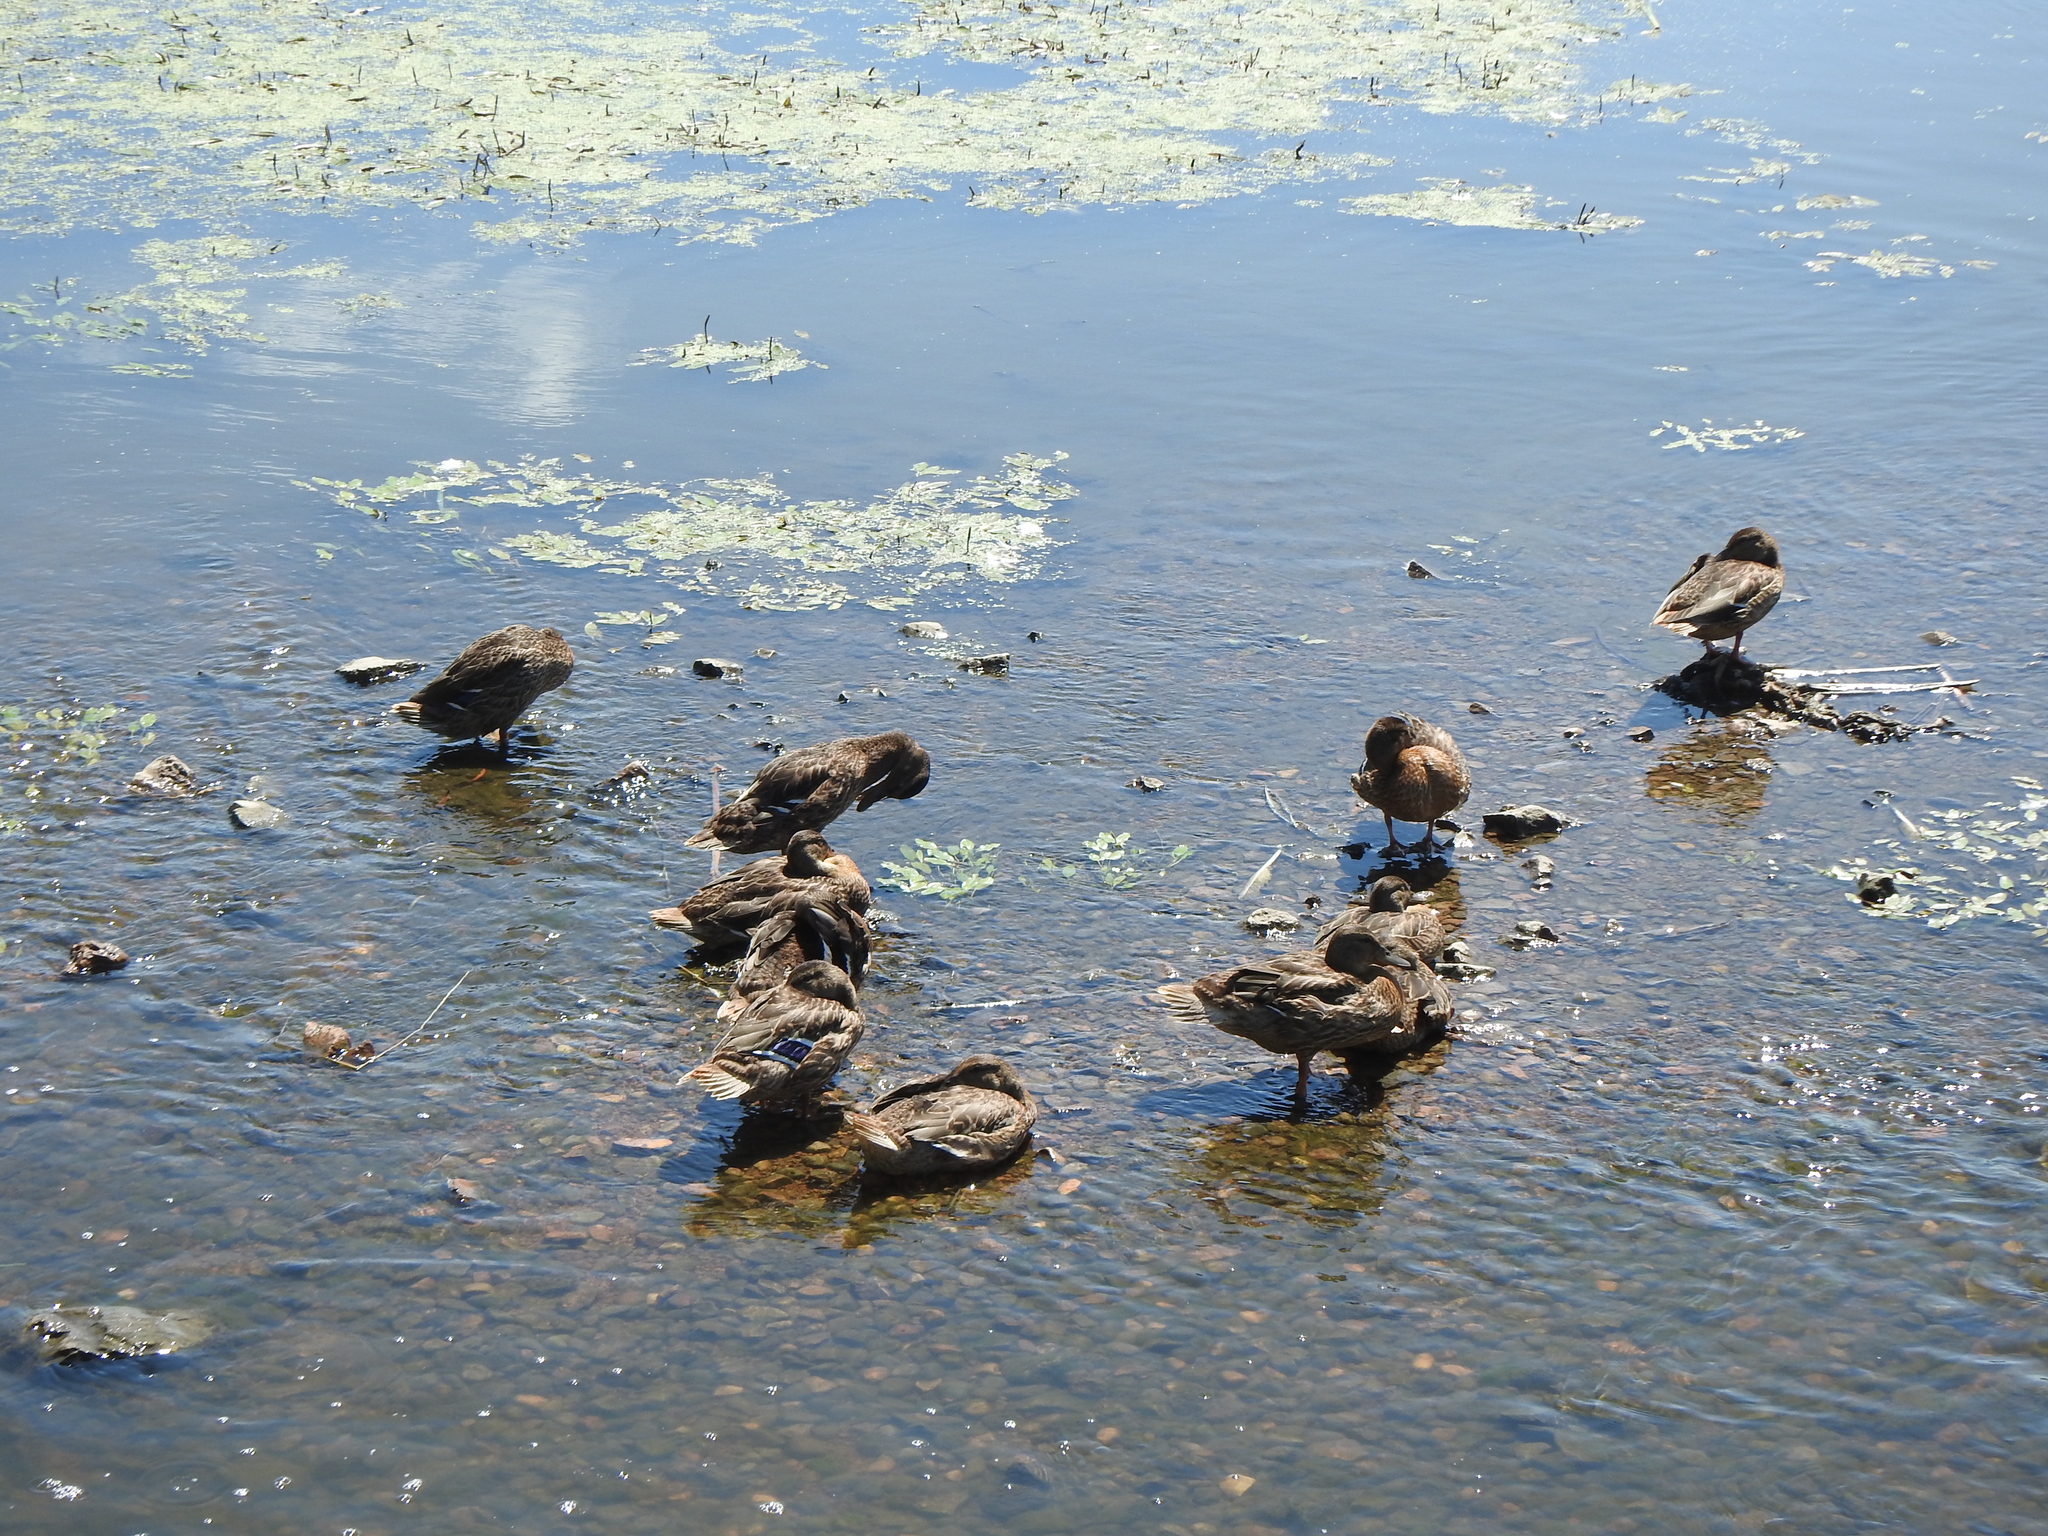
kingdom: Animalia
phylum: Chordata
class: Aves
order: Anseriformes
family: Anatidae
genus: Anas
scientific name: Anas platyrhynchos
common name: Mallard
